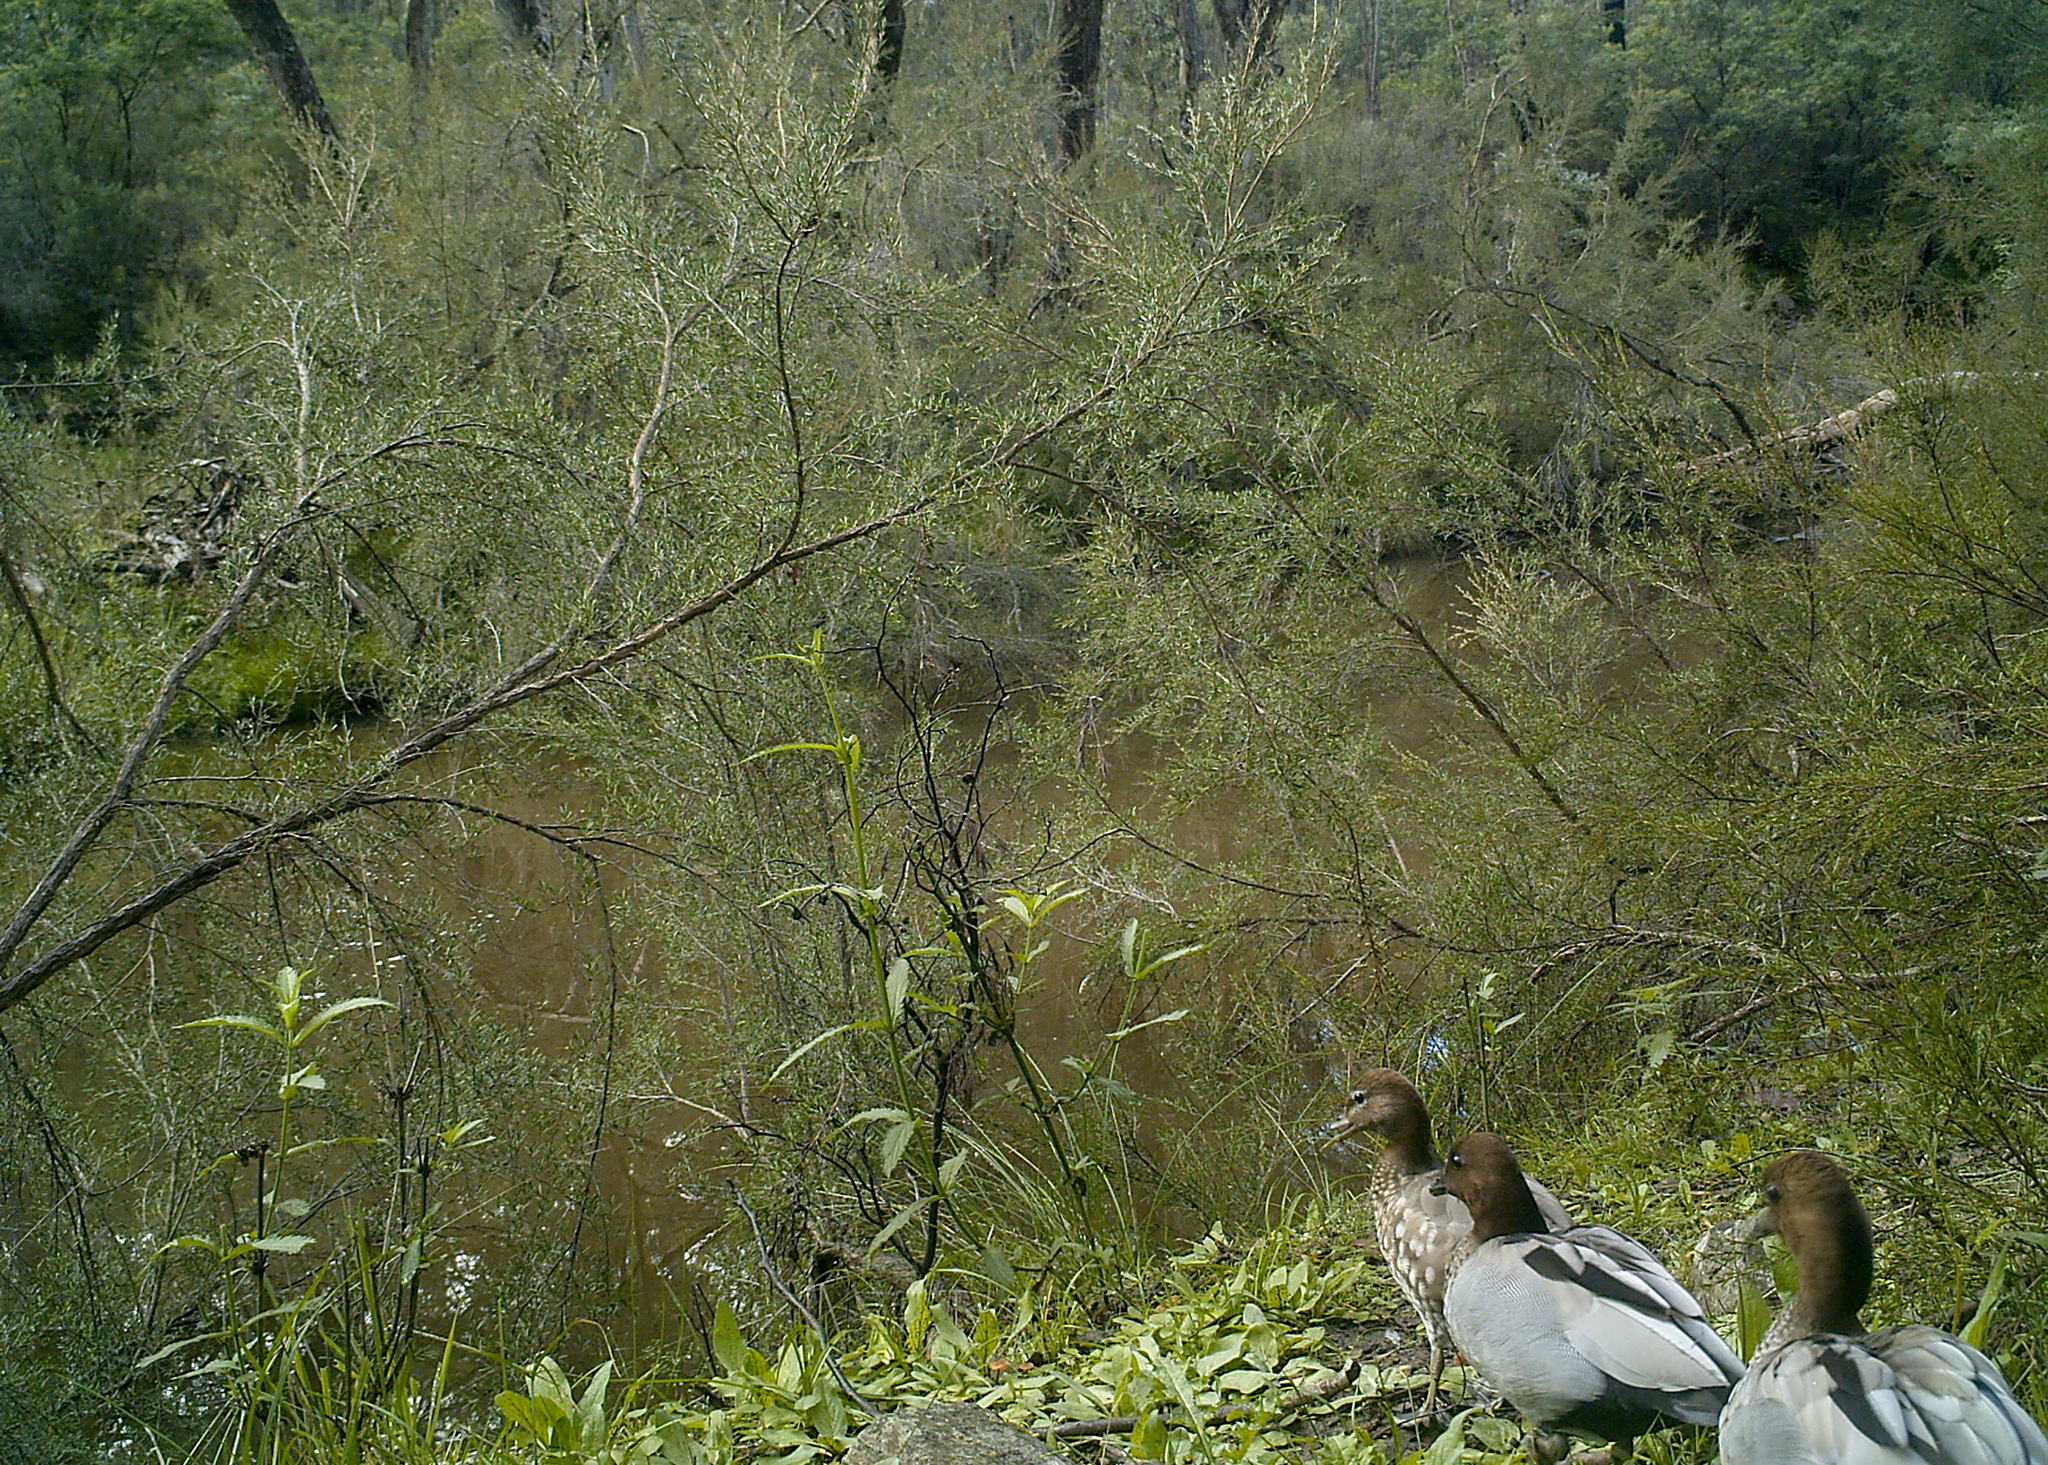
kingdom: Animalia
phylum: Chordata
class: Aves
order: Anseriformes
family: Anatidae
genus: Chenonetta
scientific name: Chenonetta jubata
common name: Maned duck
